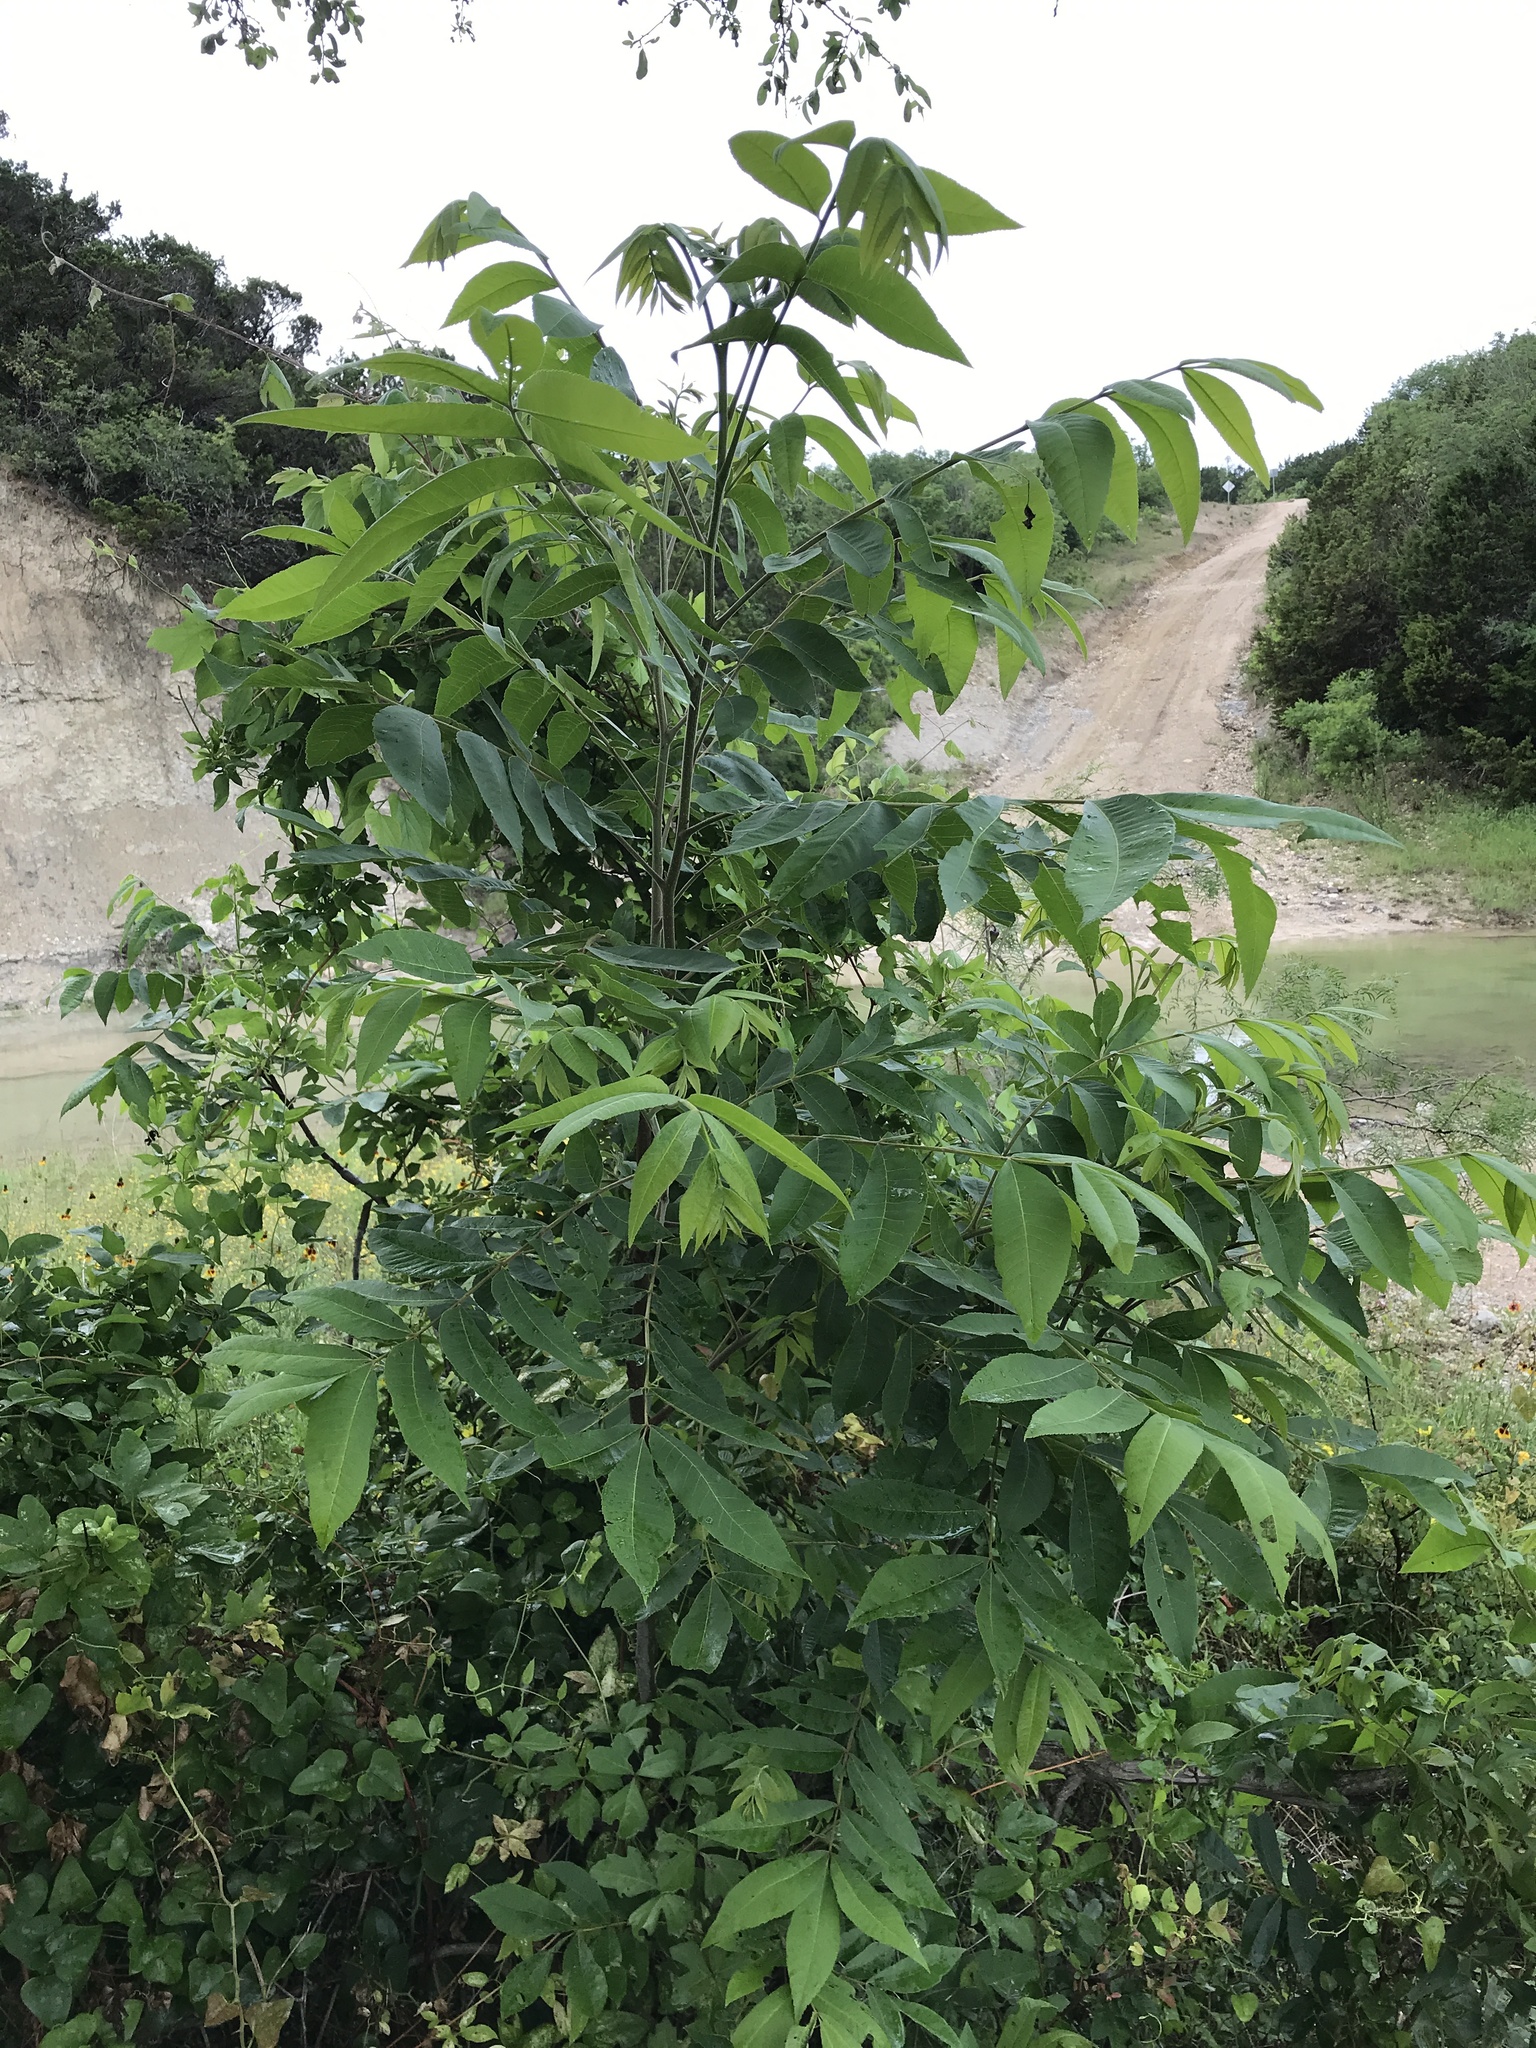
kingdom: Plantae
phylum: Tracheophyta
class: Magnoliopsida
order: Fagales
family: Juglandaceae
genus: Carya
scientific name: Carya illinoinensis
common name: Pecan
